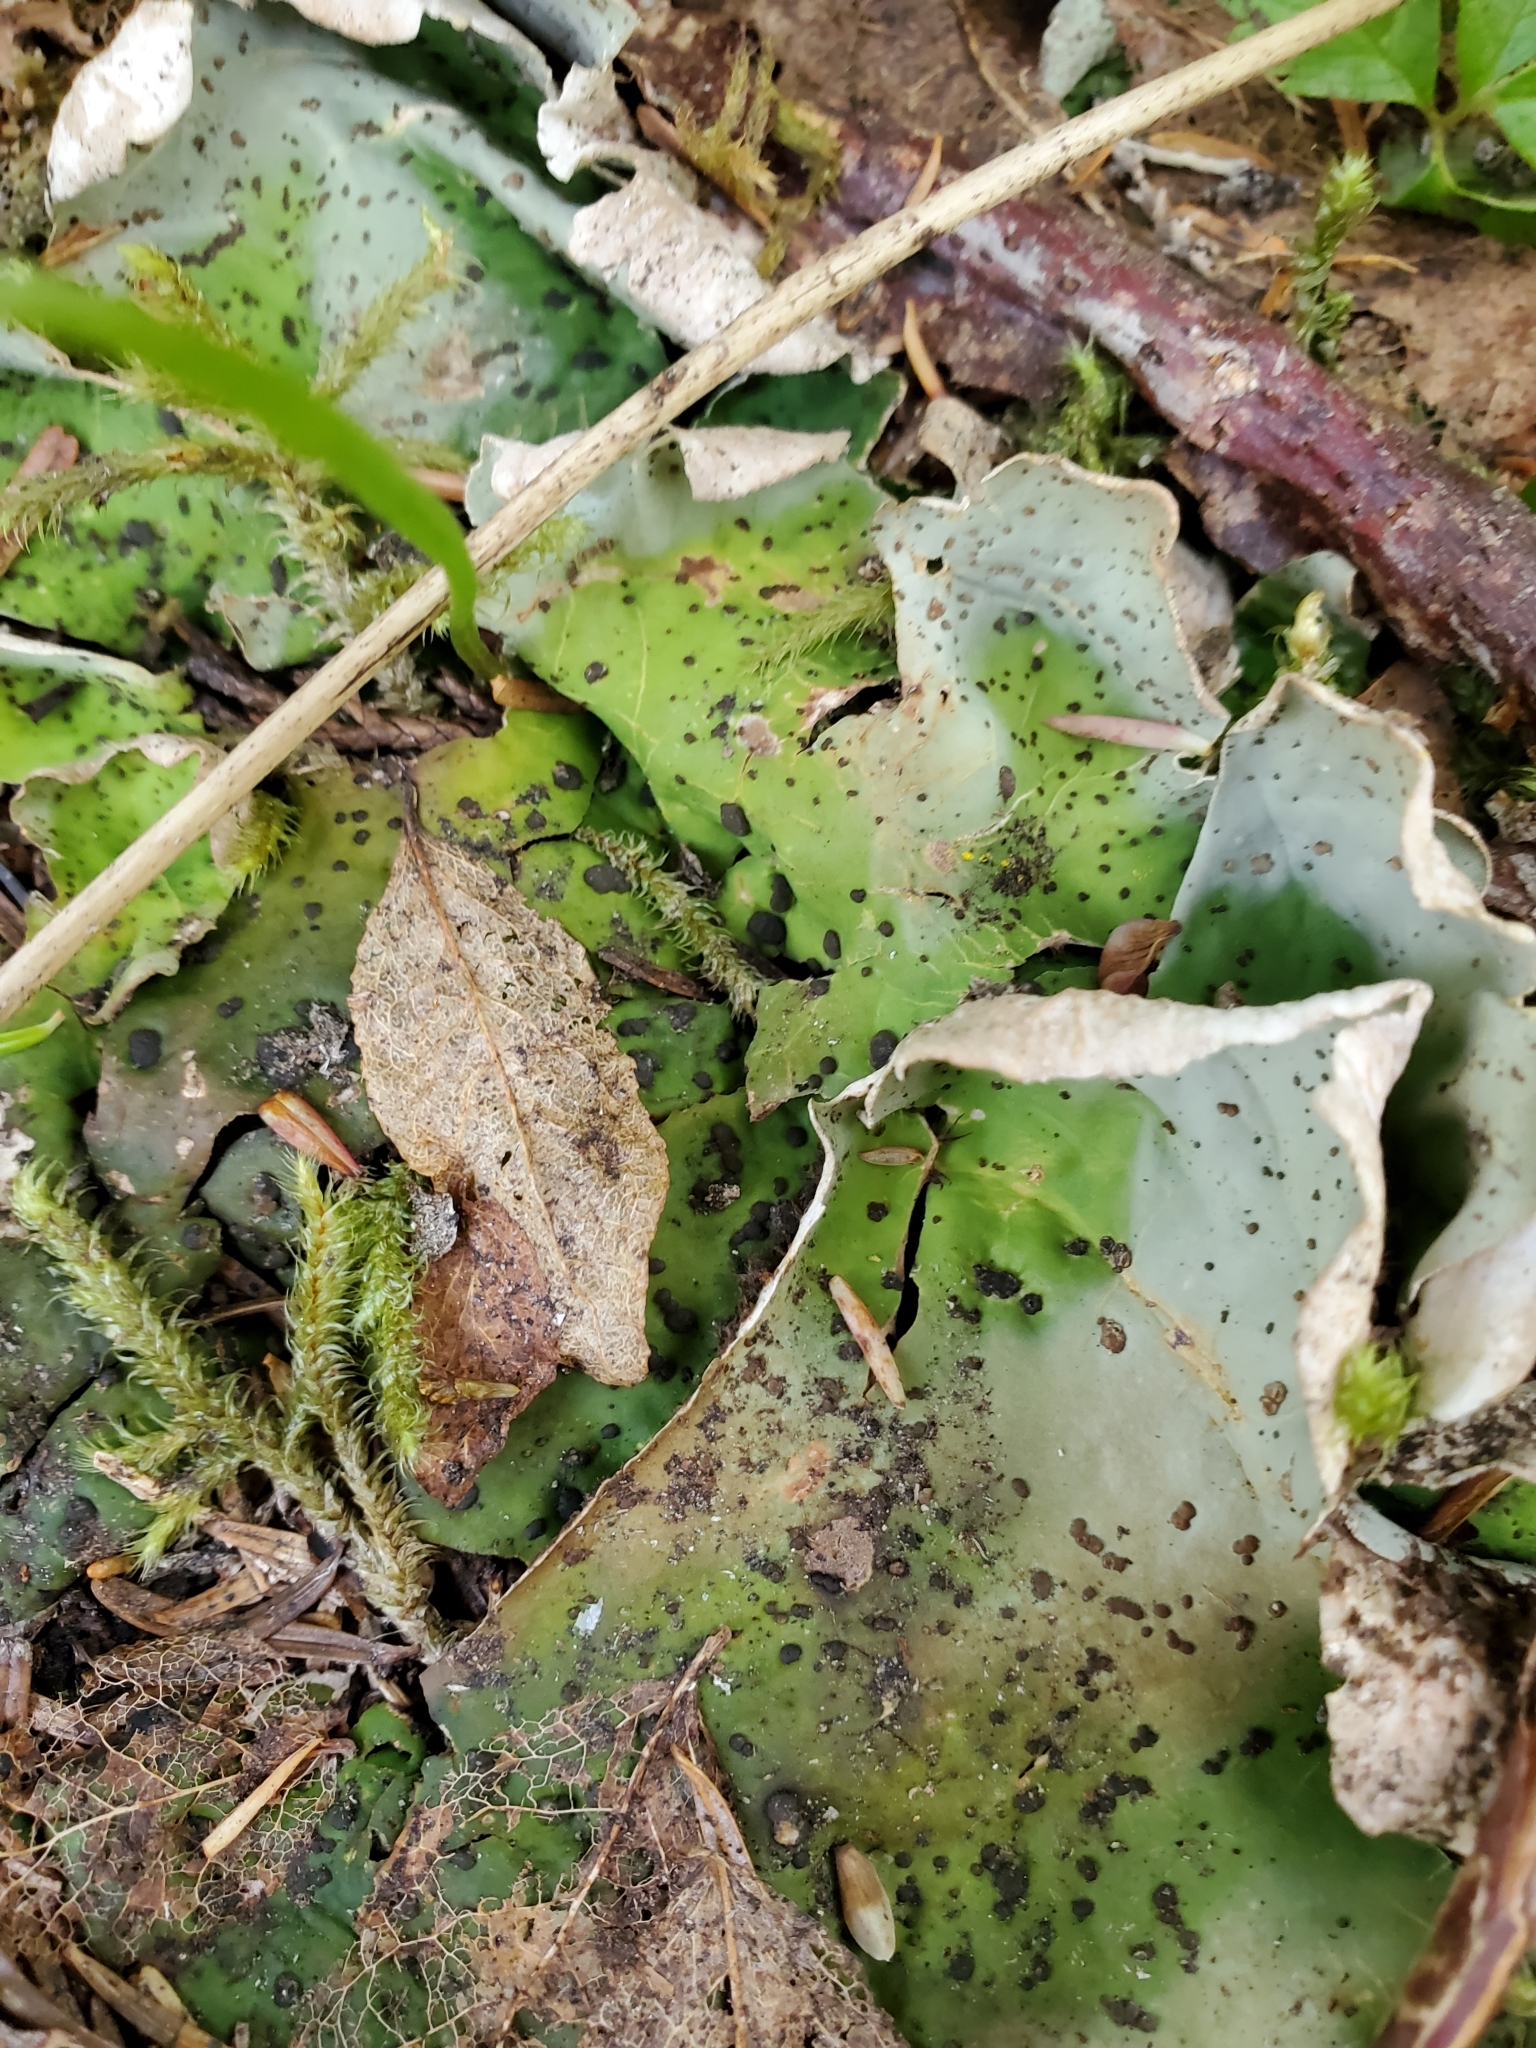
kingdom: Fungi
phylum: Ascomycota
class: Lecanoromycetes
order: Peltigerales
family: Peltigeraceae
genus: Peltigera
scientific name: Peltigera aphthosa
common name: Common freckle pelt lichen
